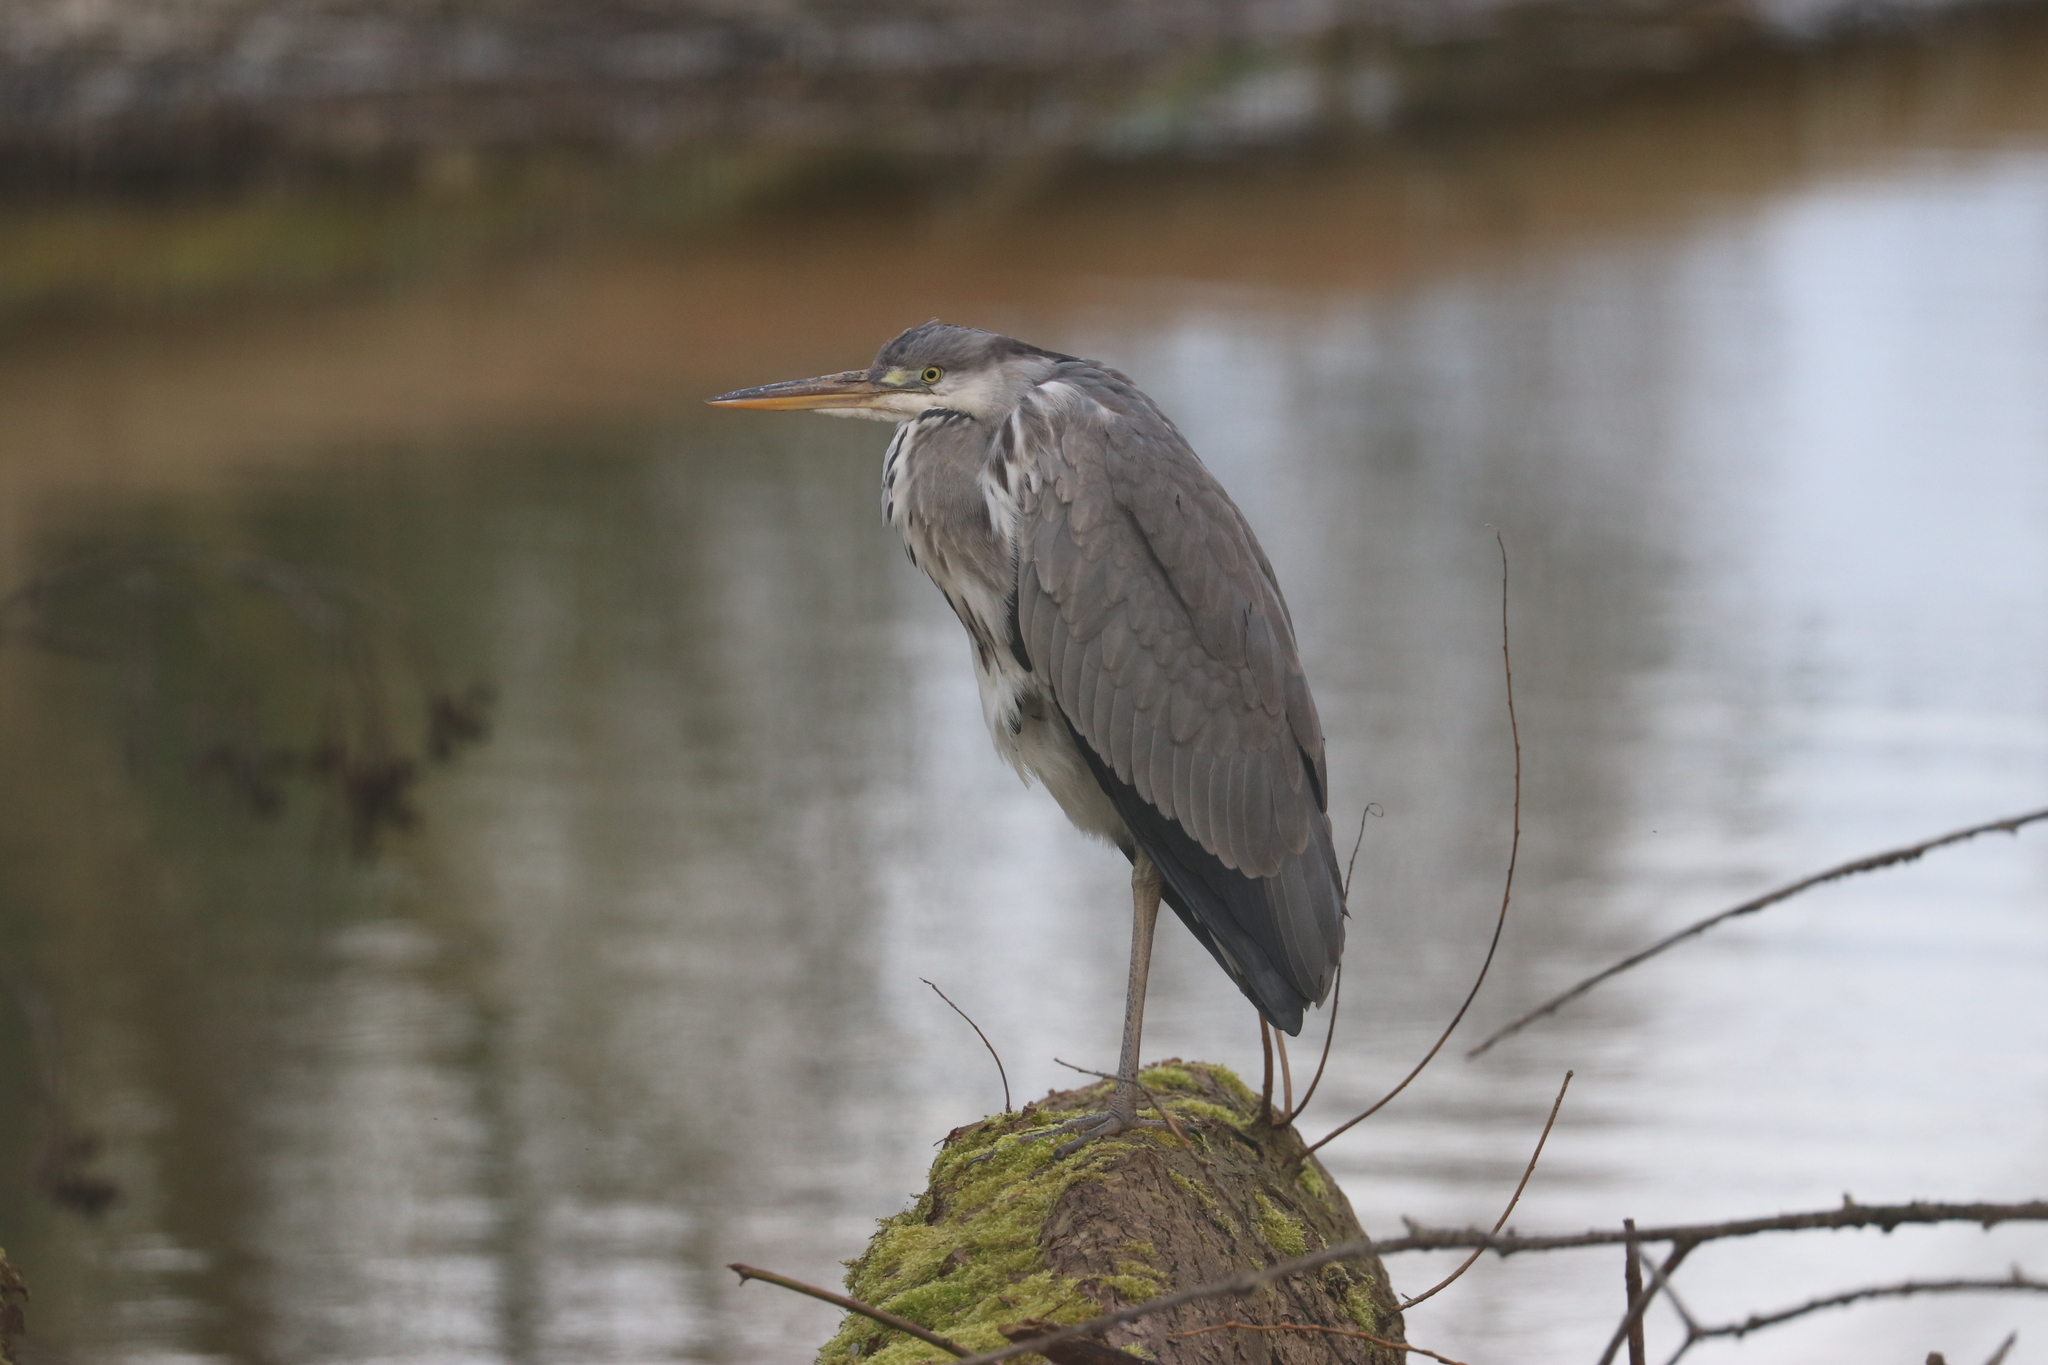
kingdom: Animalia
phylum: Chordata
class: Aves
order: Pelecaniformes
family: Ardeidae
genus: Ardea
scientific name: Ardea cinerea
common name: Grey heron
